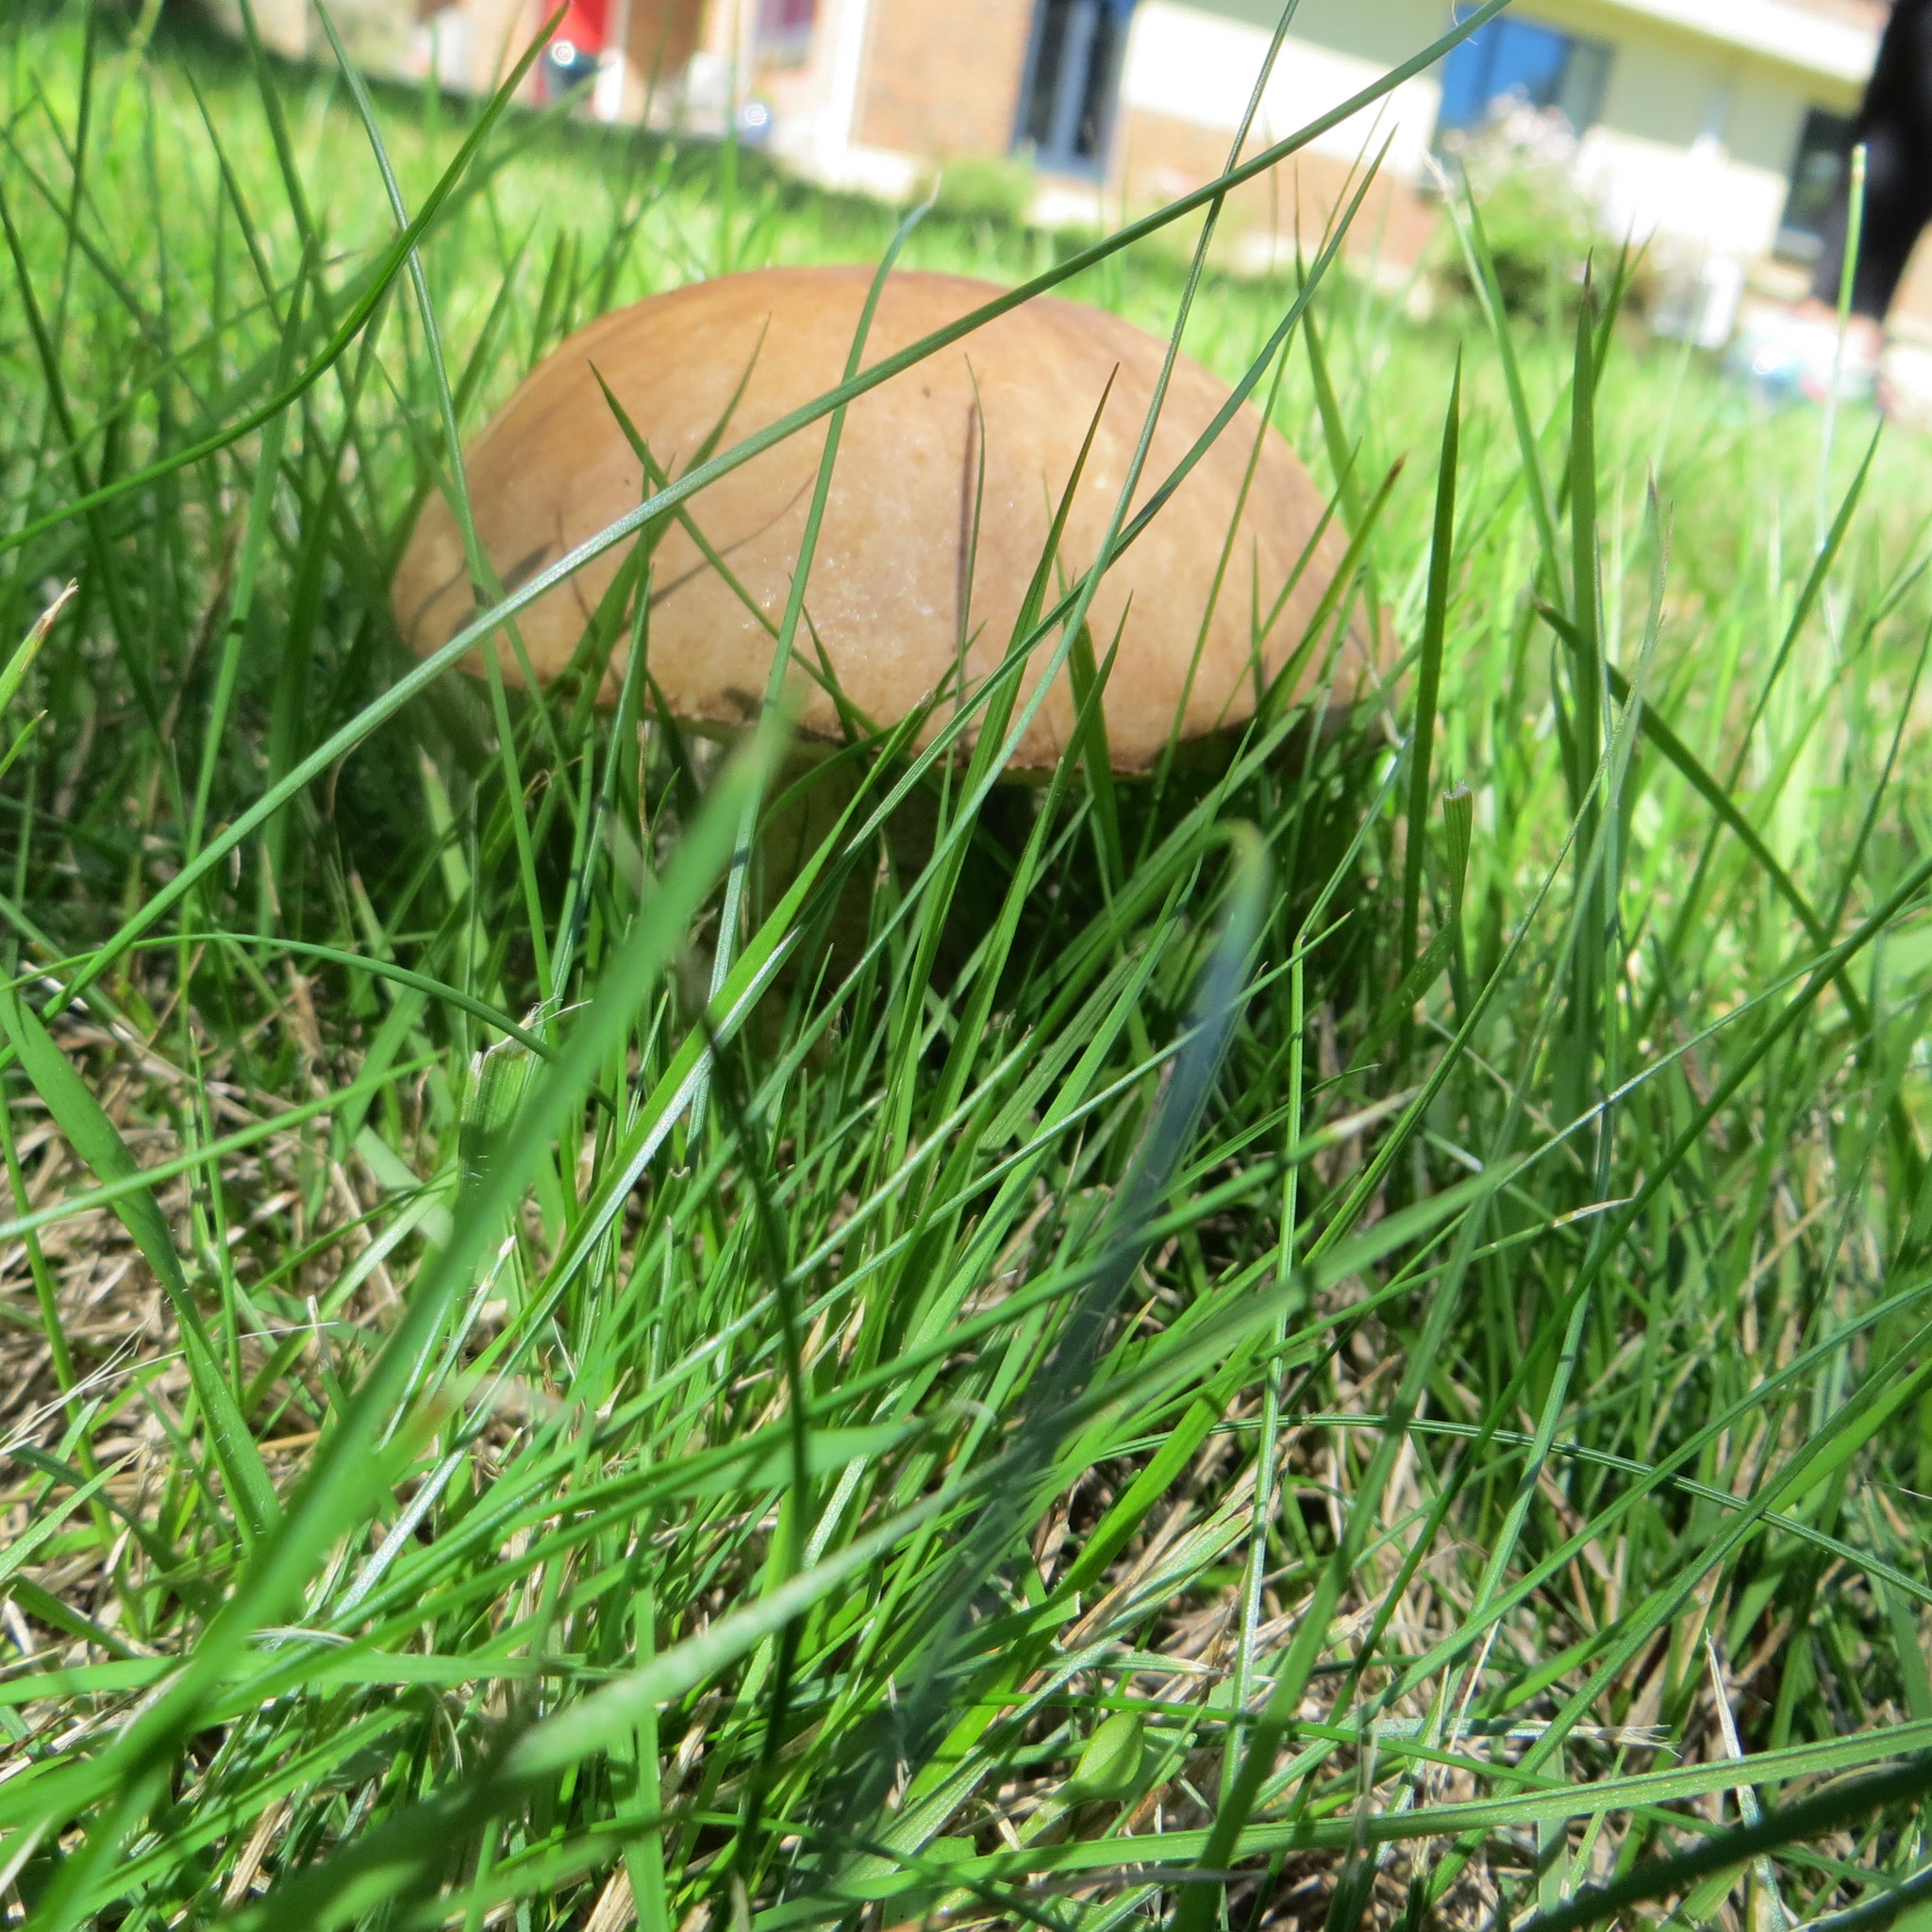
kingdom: Fungi
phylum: Basidiomycota
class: Agaricomycetes
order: Boletales
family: Boletaceae
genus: Leccinum
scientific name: Leccinum scabrum
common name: Blushing bolete
